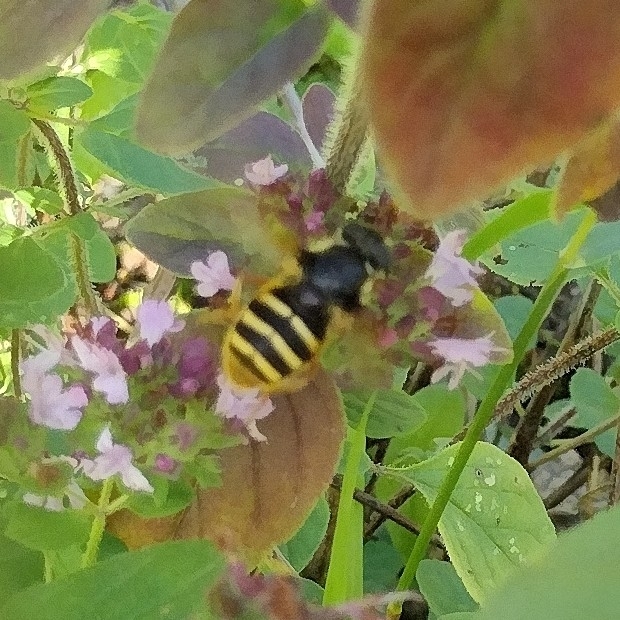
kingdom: Animalia
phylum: Arthropoda
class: Insecta
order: Diptera
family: Syrphidae
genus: Sericomyia
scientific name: Sericomyia silentis
